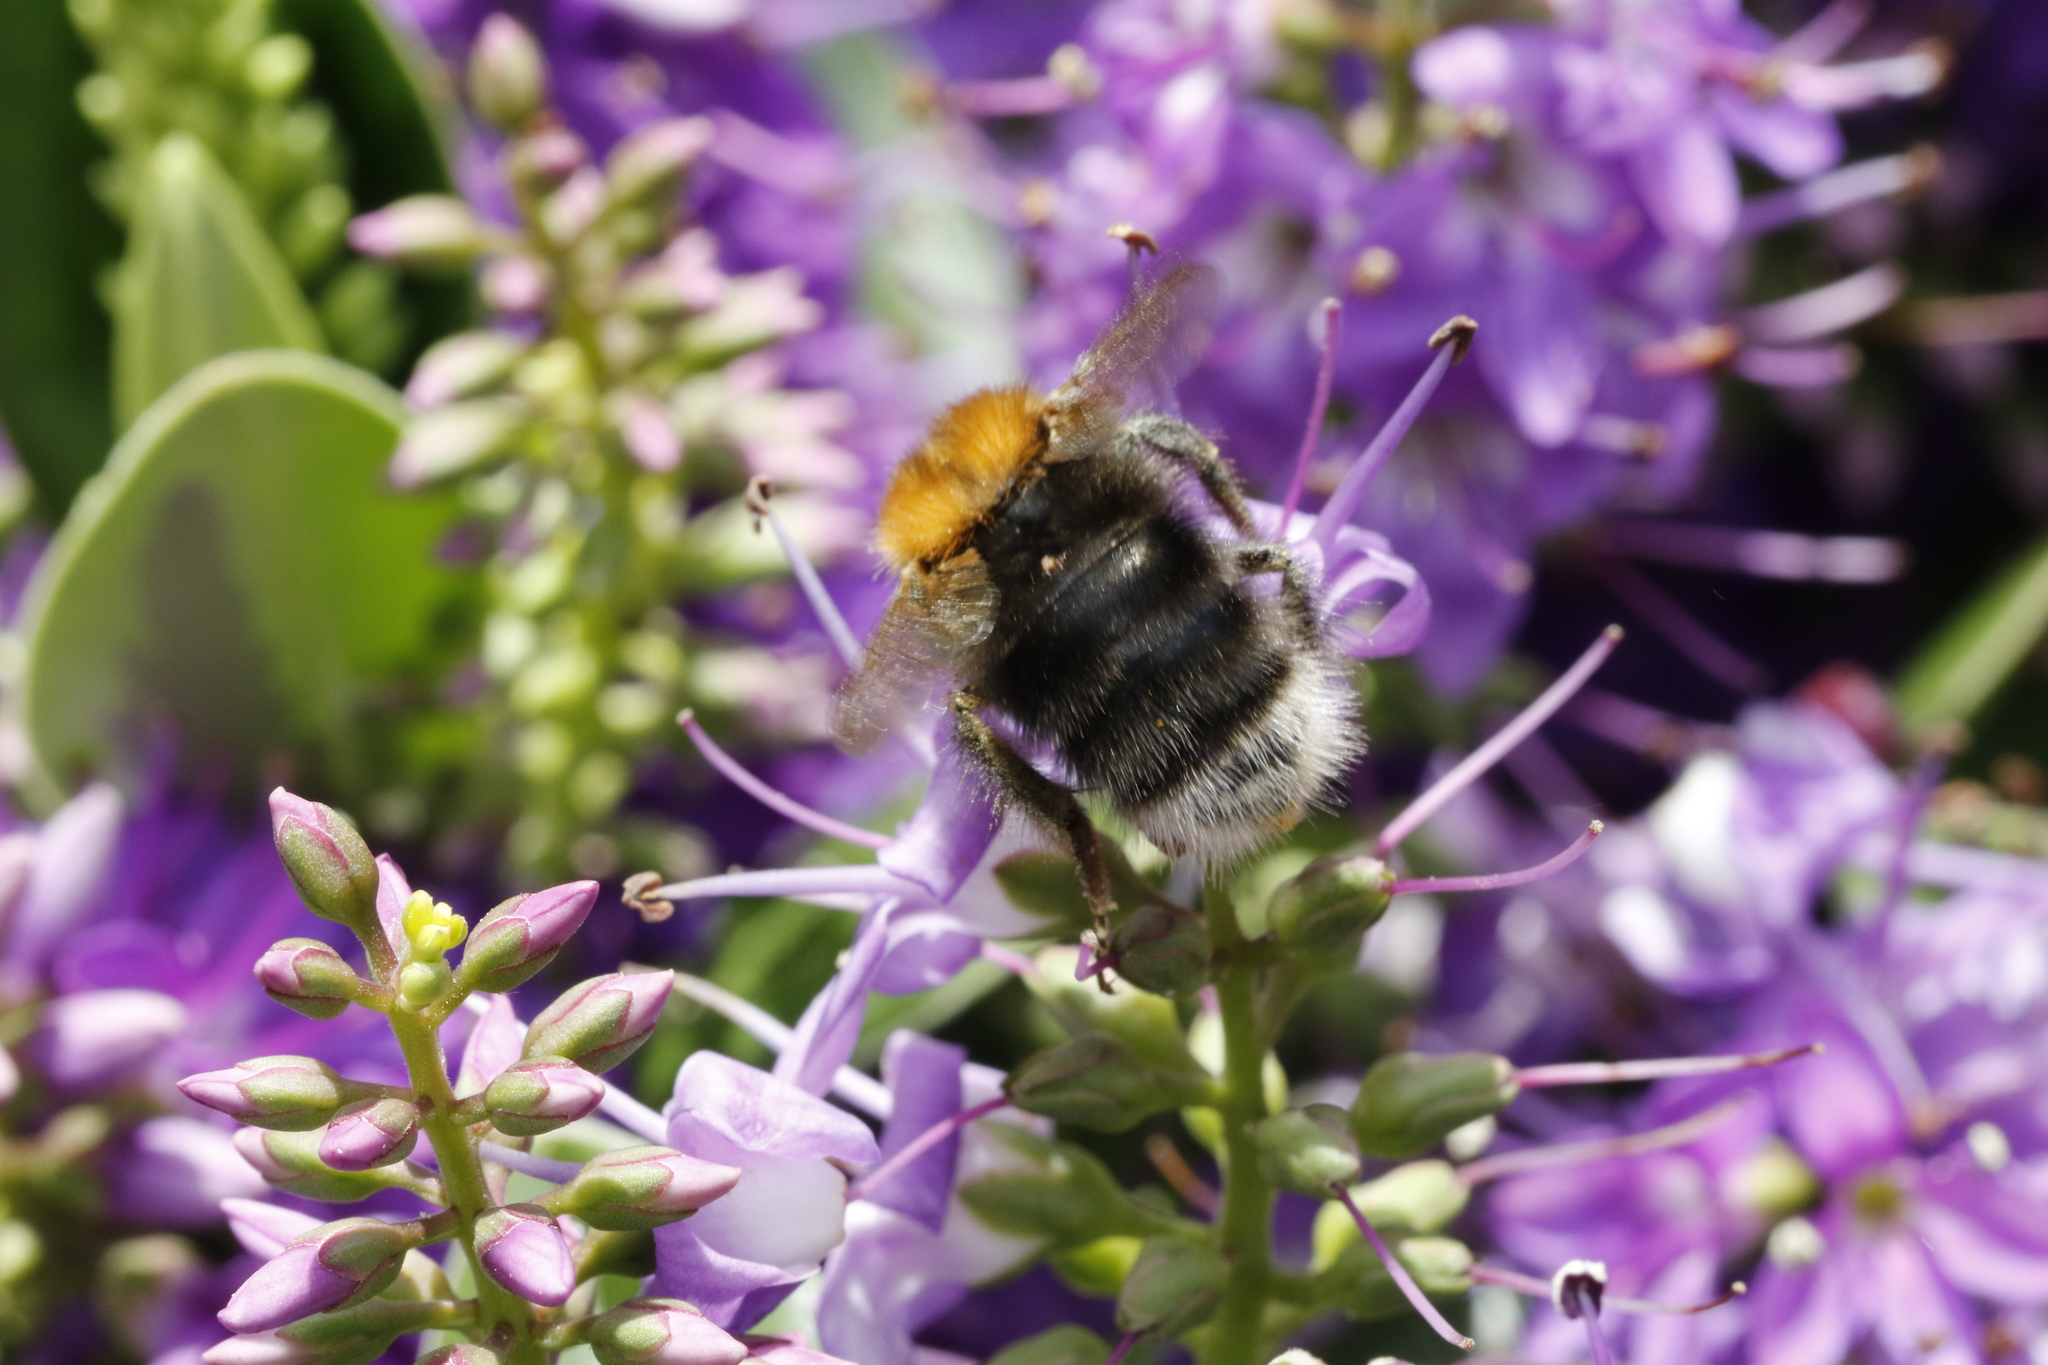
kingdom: Animalia
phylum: Arthropoda
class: Insecta
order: Hymenoptera
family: Apidae
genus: Bombus
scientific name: Bombus hypnorum
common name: New garden bumblebee
